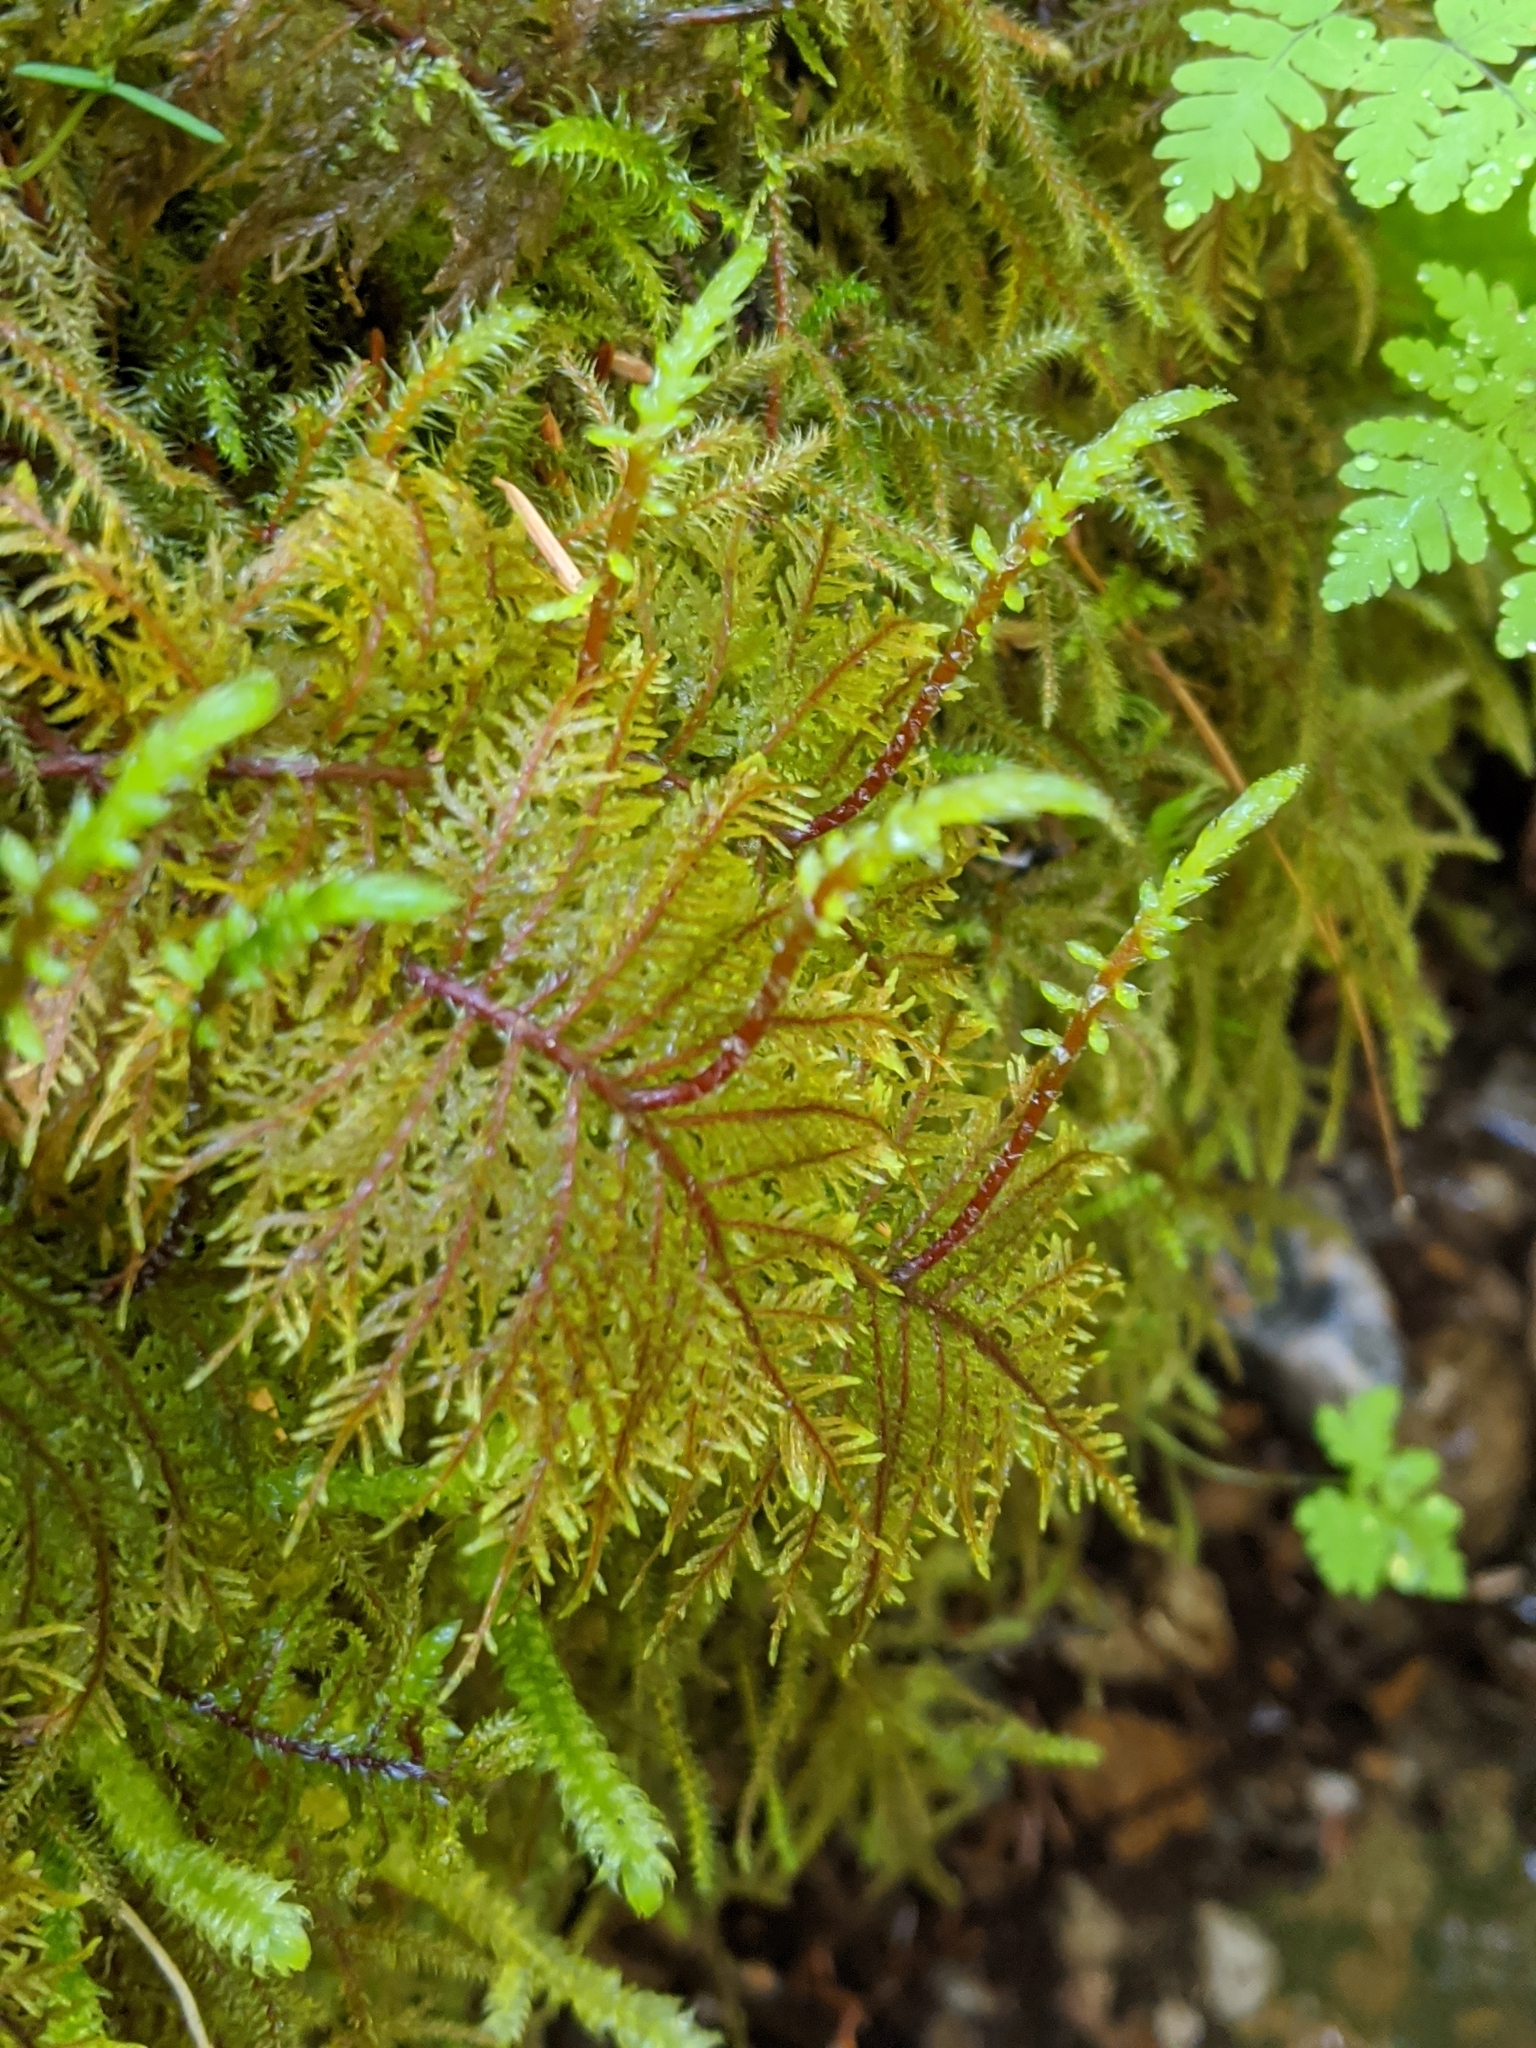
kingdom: Plantae
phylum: Bryophyta
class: Bryopsida
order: Hypnales
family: Hylocomiaceae
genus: Hylocomium
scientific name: Hylocomium splendens
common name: Stairstep moss
